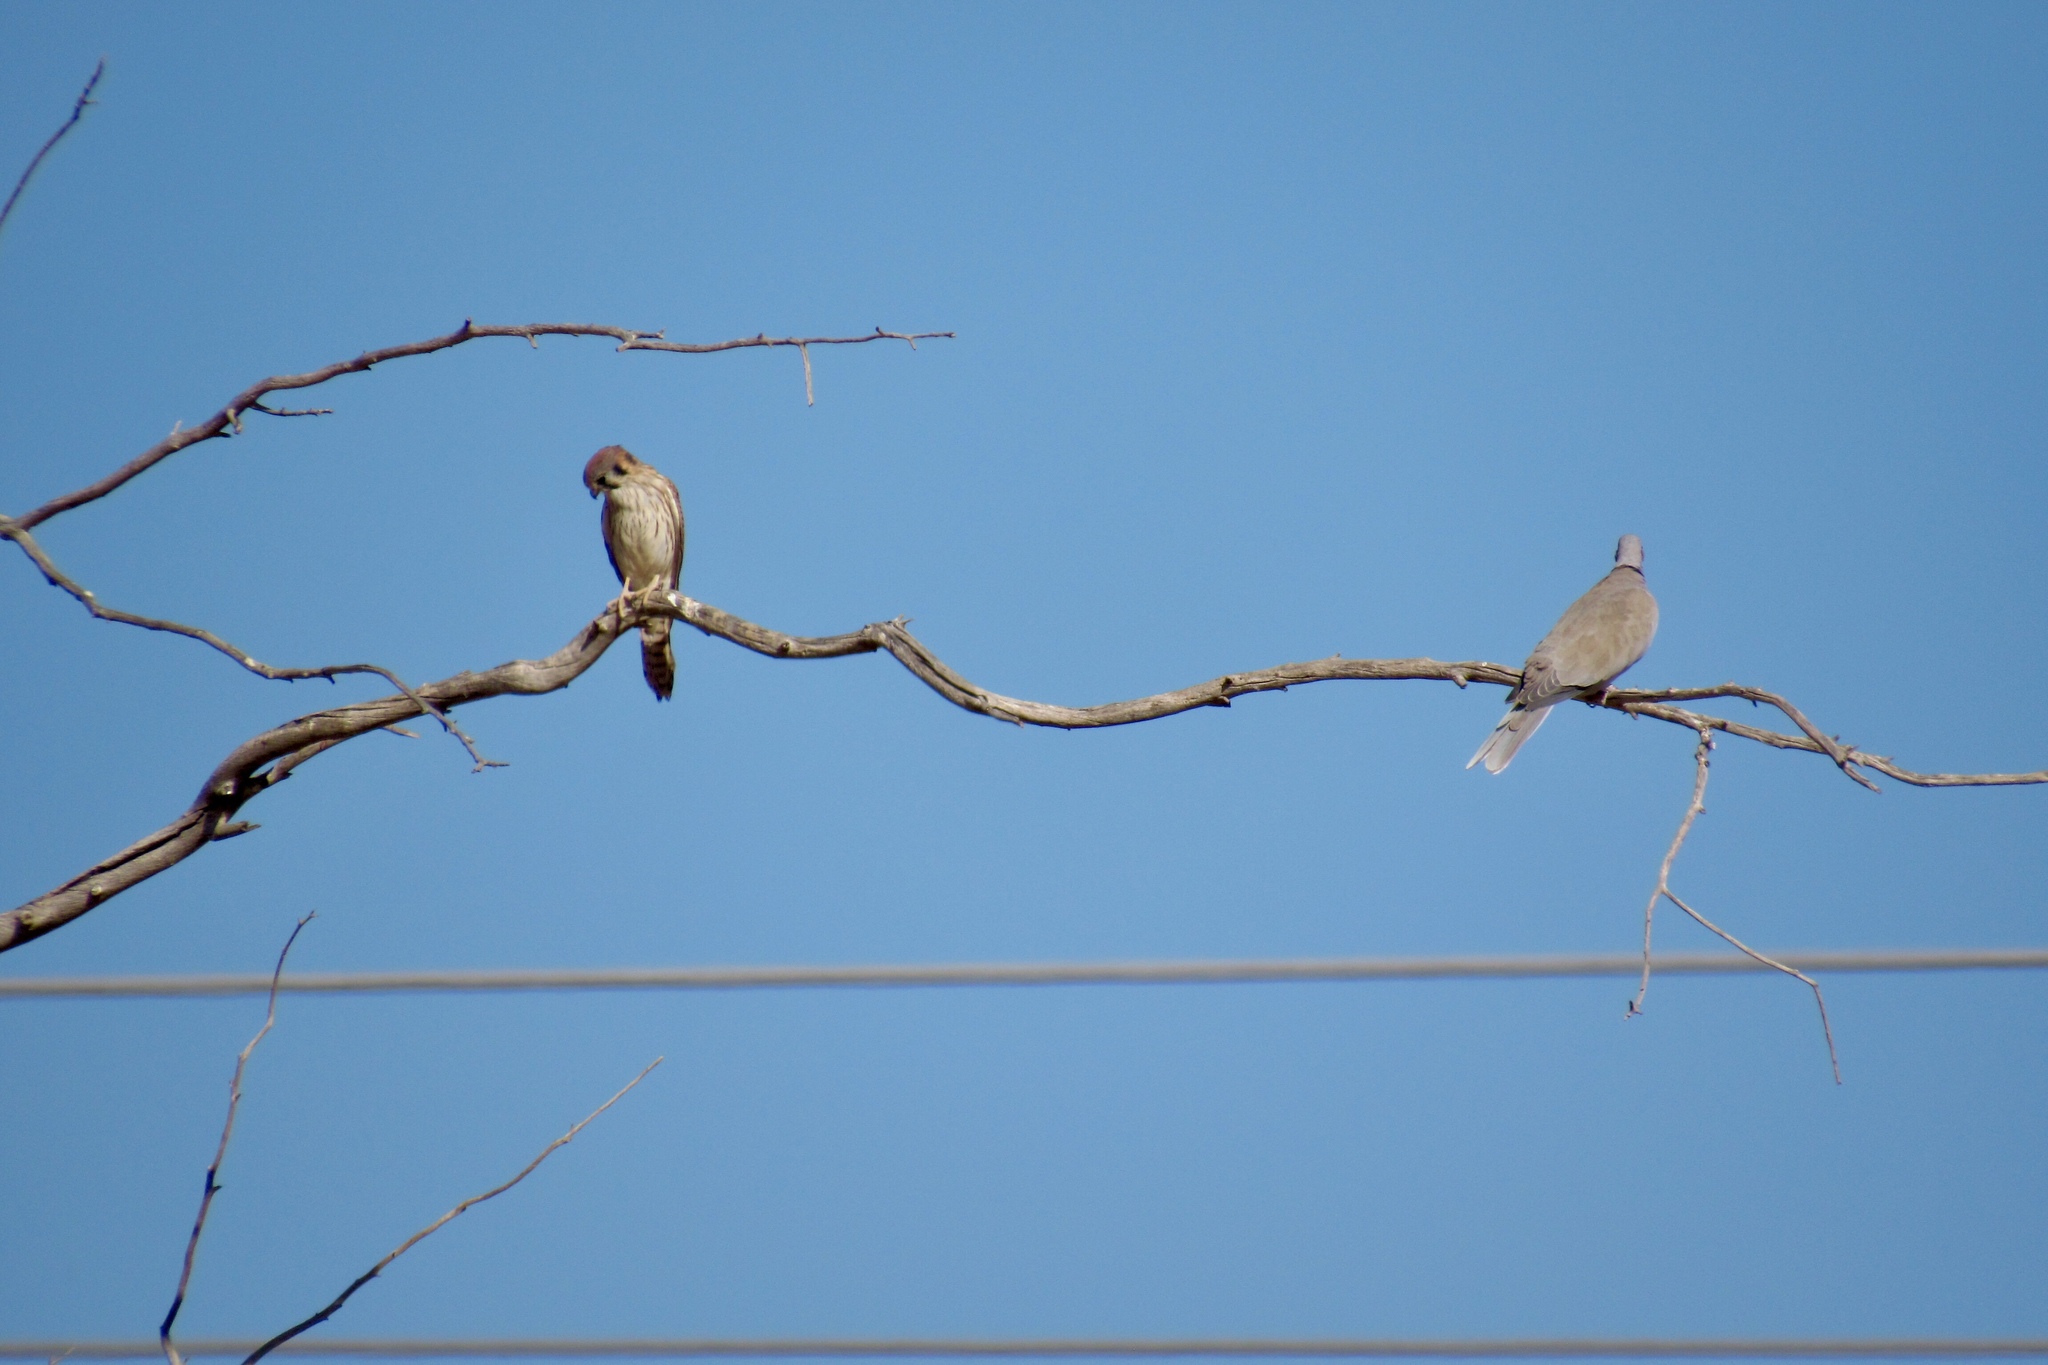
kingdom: Animalia
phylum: Chordata
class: Aves
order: Falconiformes
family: Falconidae
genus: Falco
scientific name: Falco sparverius
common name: American kestrel
